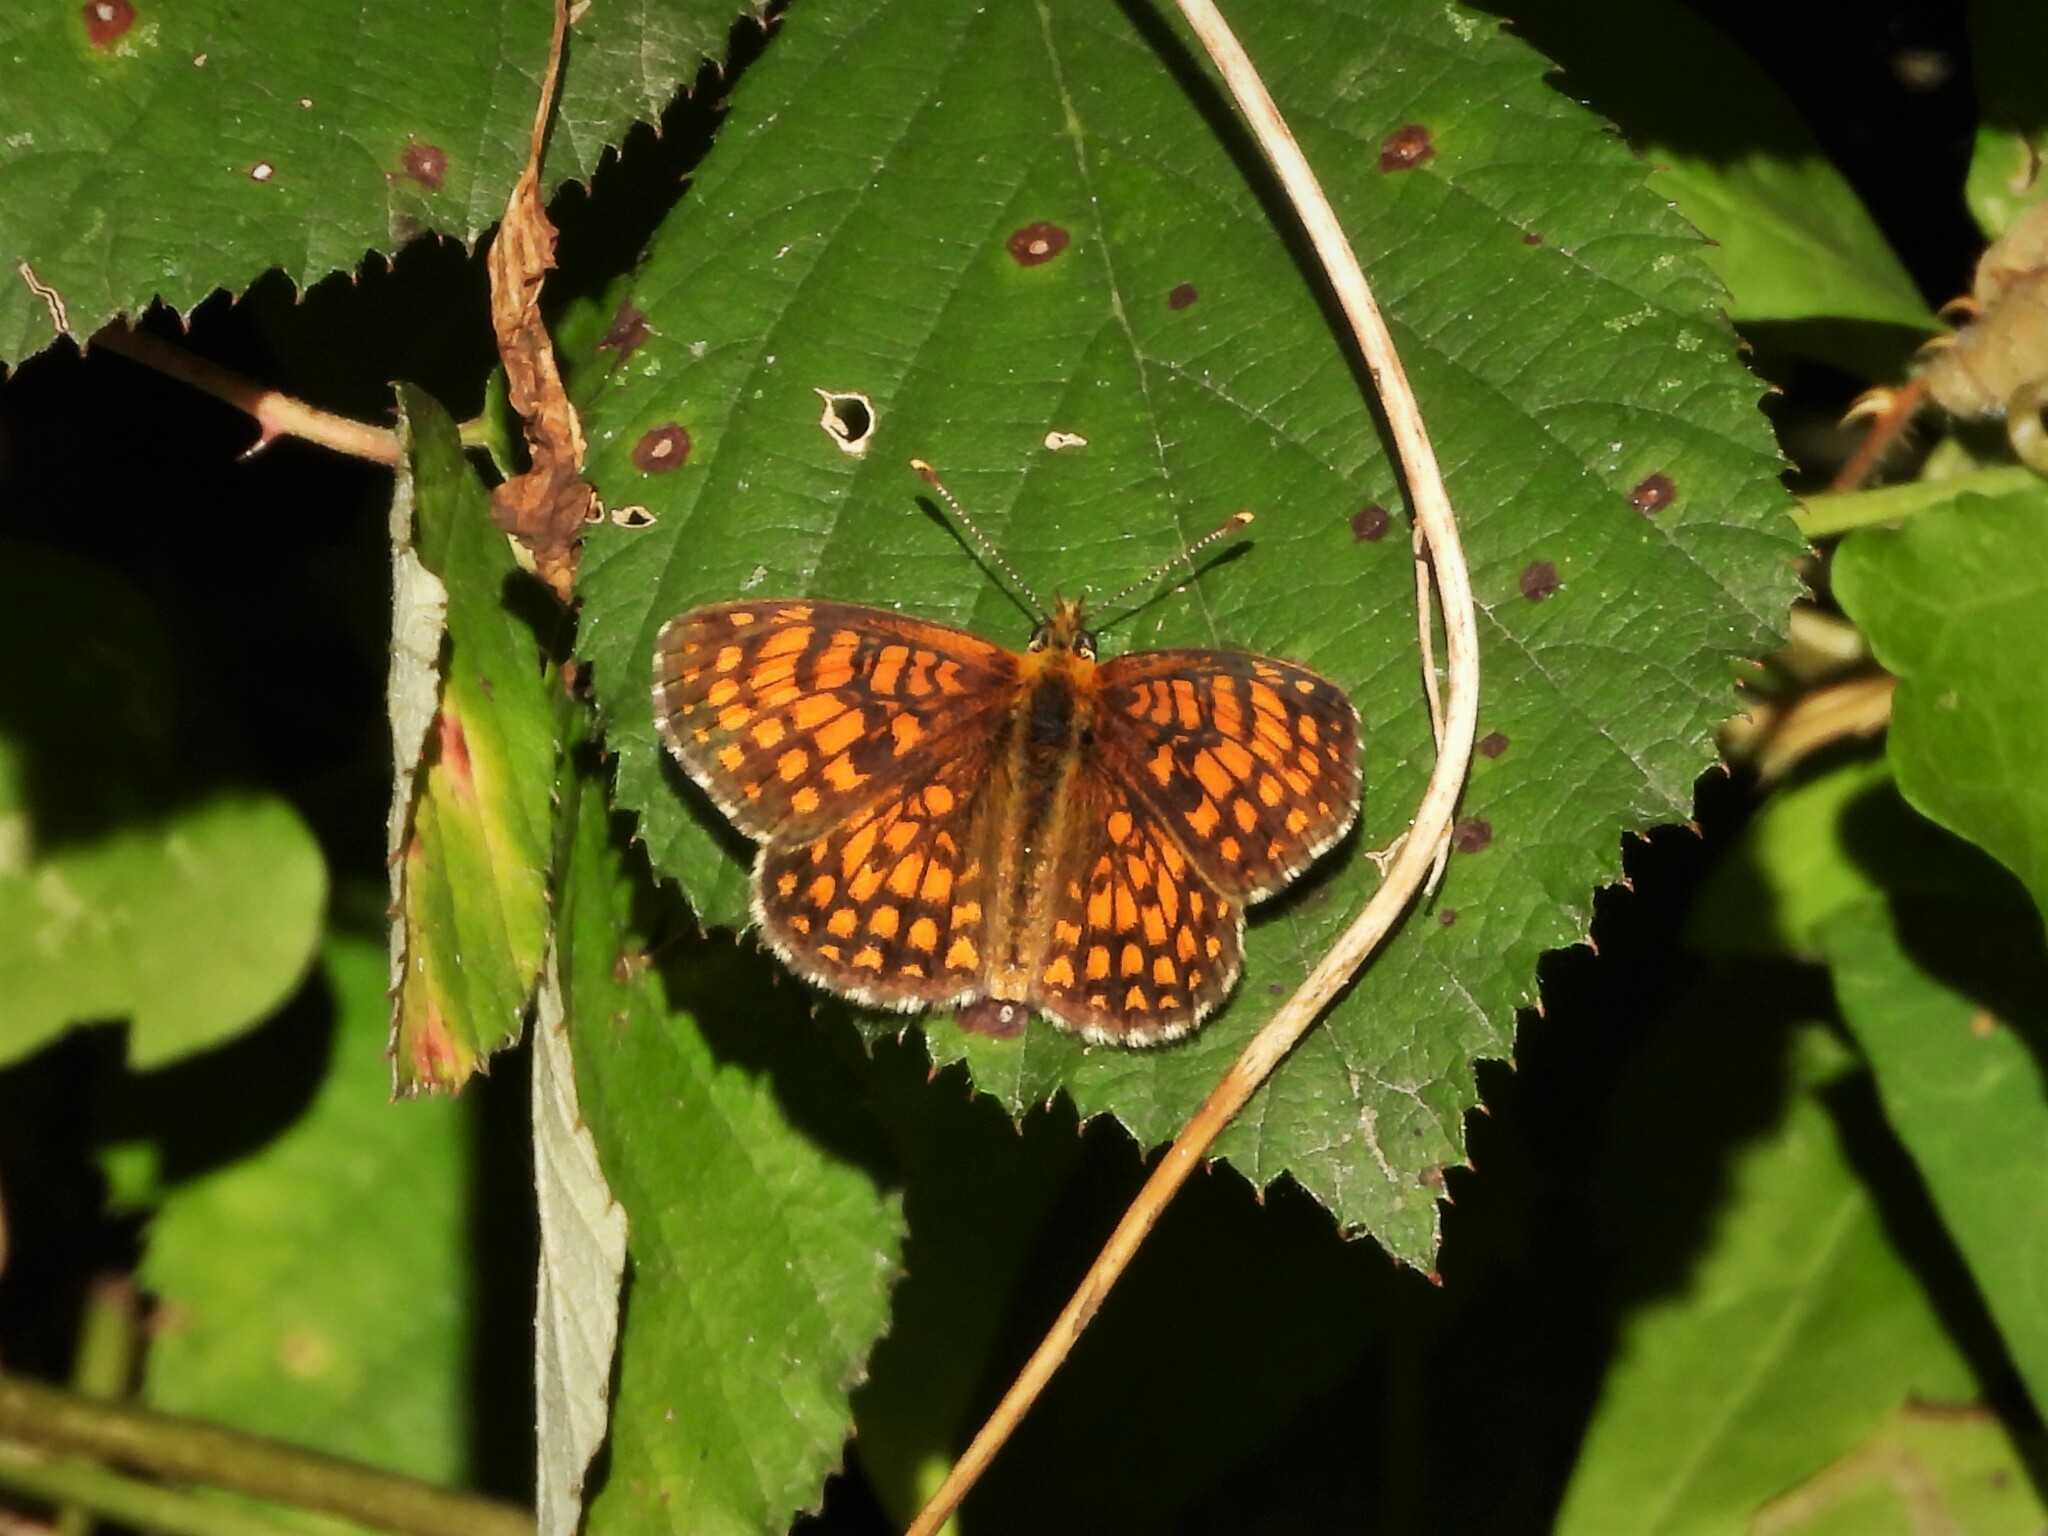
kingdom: Animalia
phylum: Arthropoda
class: Insecta
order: Lepidoptera
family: Nymphalidae
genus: Mellicta
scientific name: Mellicta athalia
